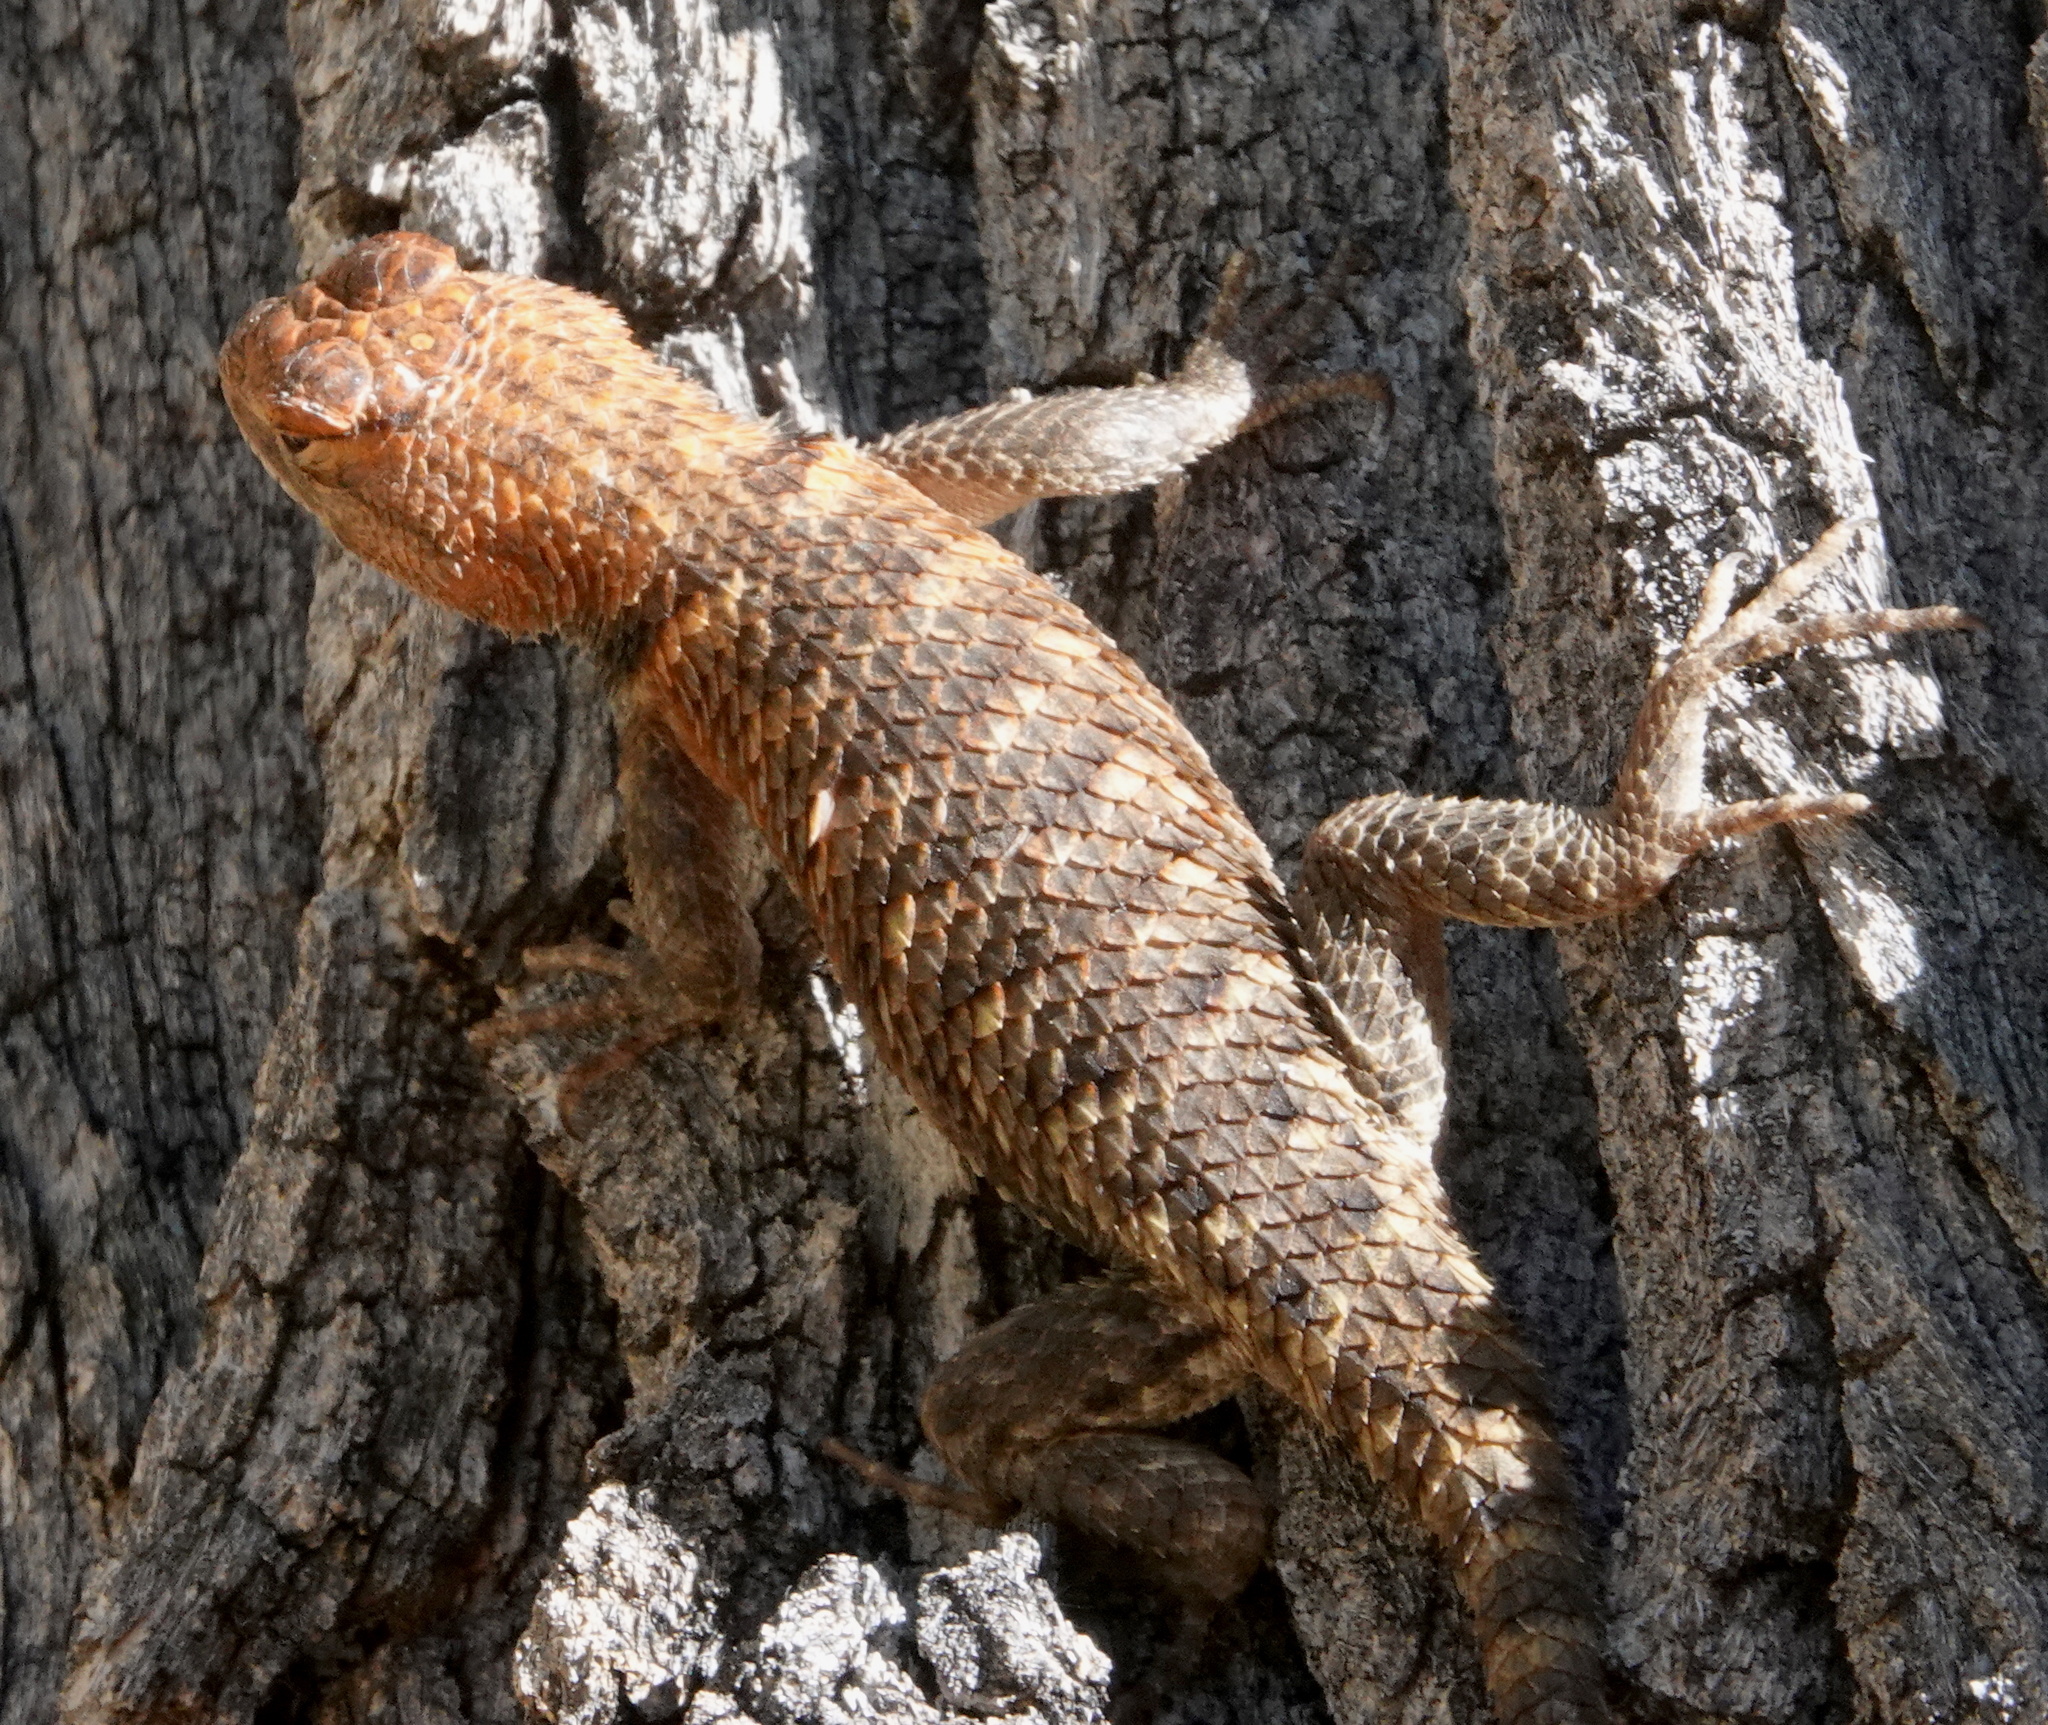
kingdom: Animalia
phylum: Chordata
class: Squamata
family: Phrynosomatidae
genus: Sceloporus
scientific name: Sceloporus uniformis
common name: Yellow-backed spiny lizard
